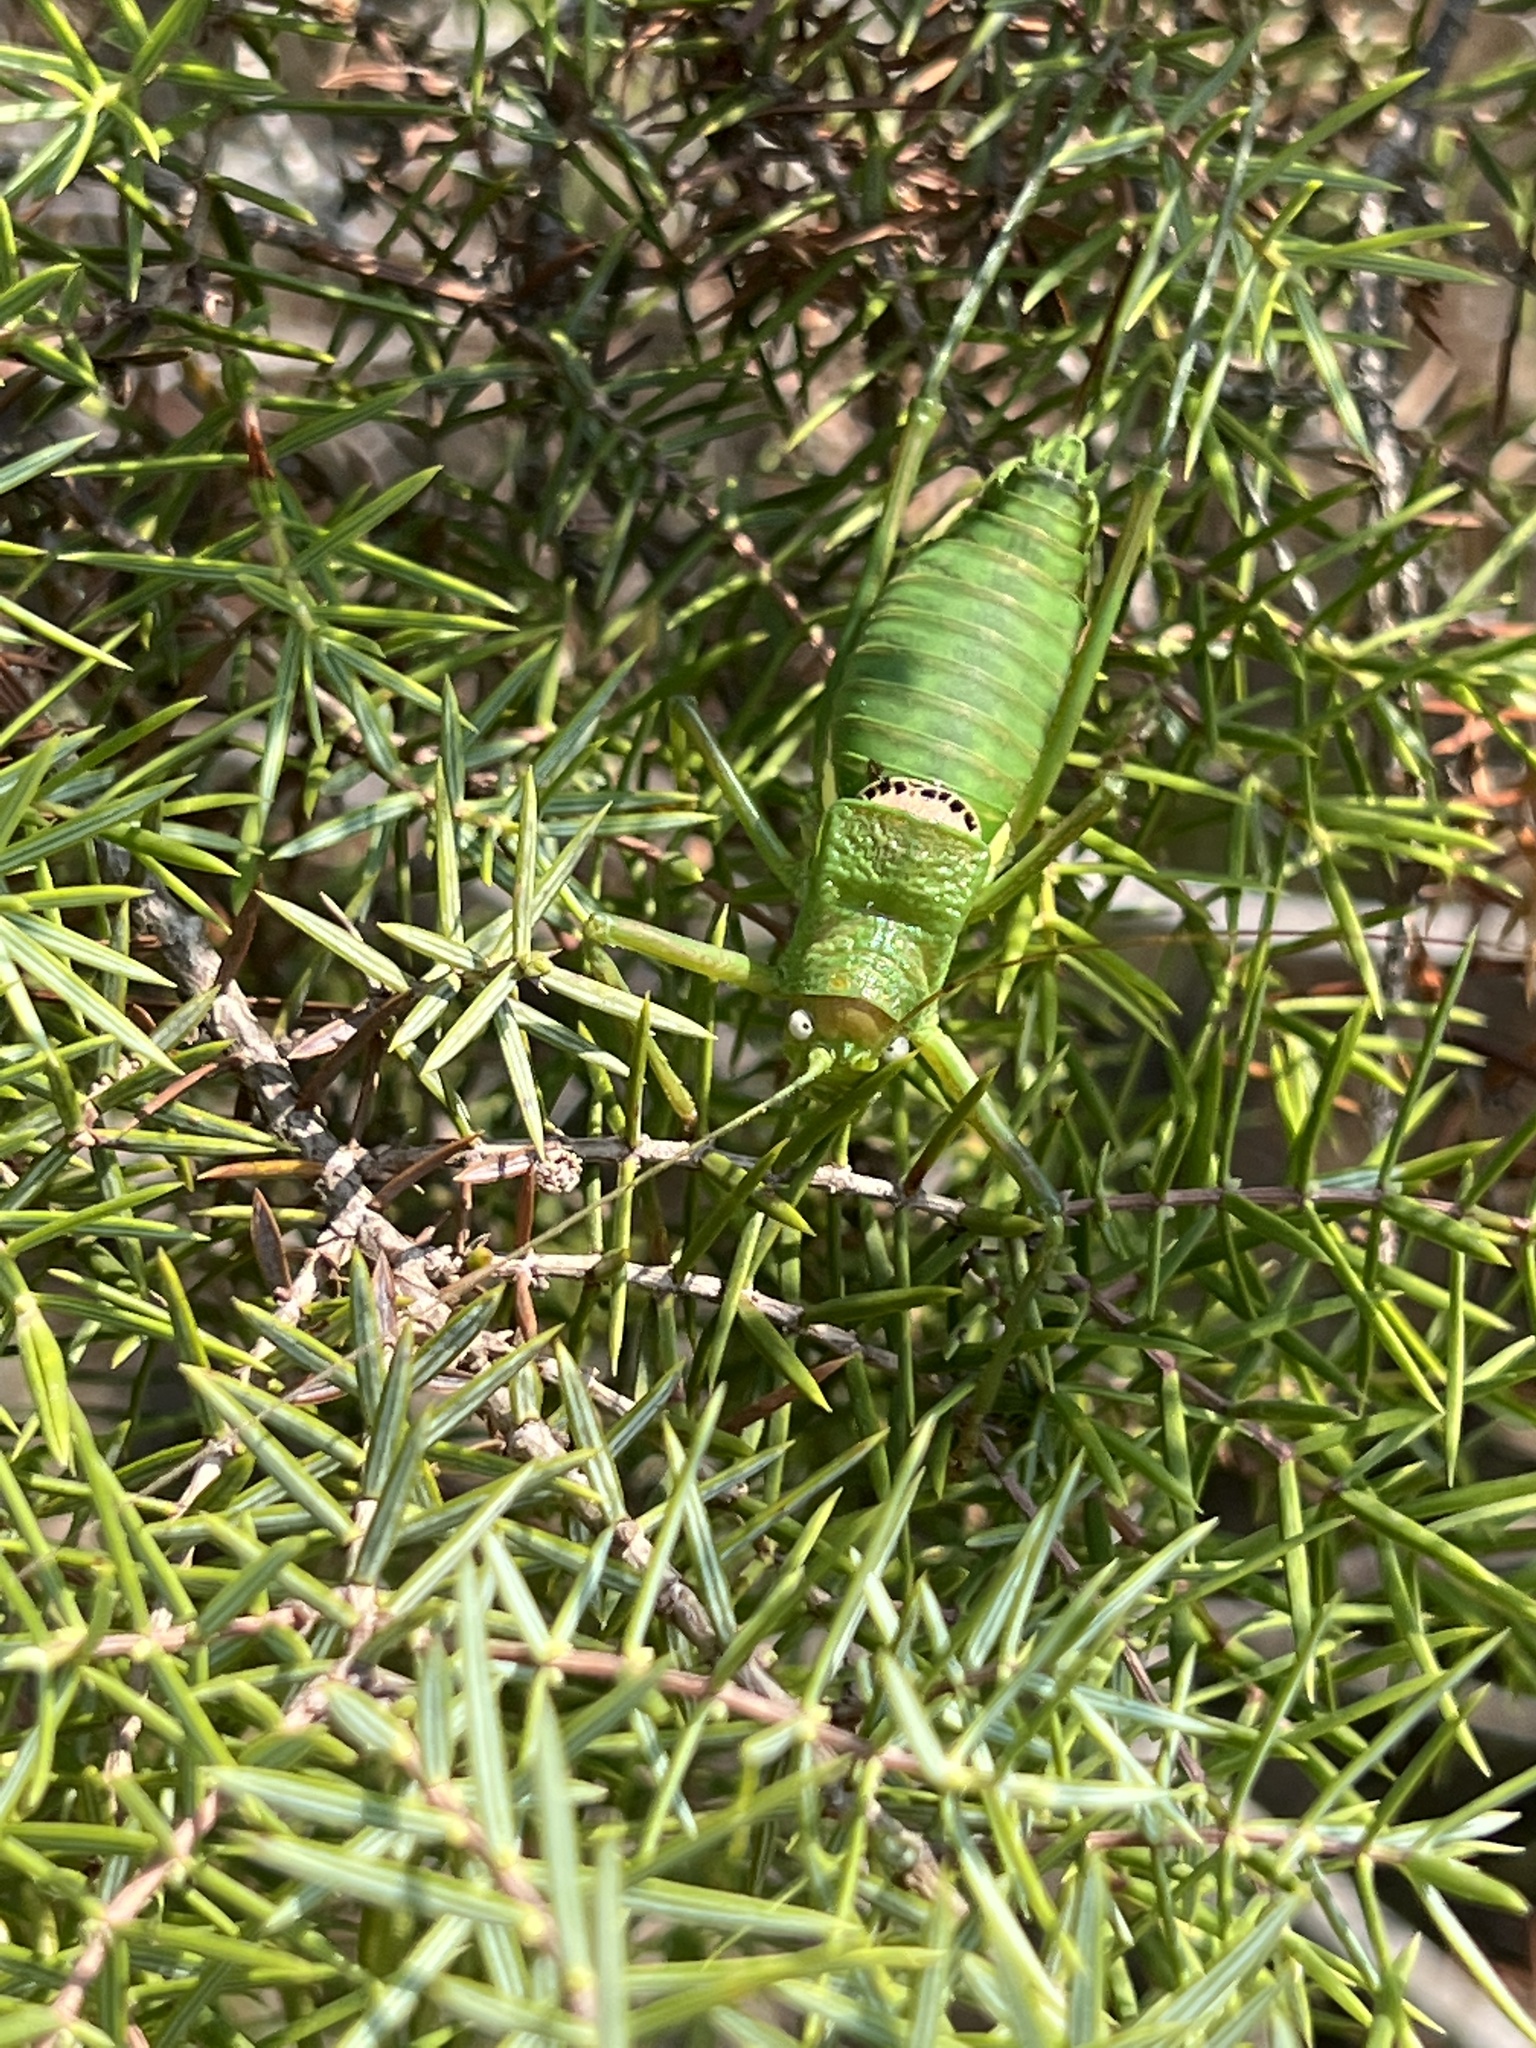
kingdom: Animalia
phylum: Arthropoda
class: Insecta
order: Orthoptera
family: Tettigoniidae
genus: Uromenus
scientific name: Uromenus rugosicollis
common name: Rough saddle bush-cricket
